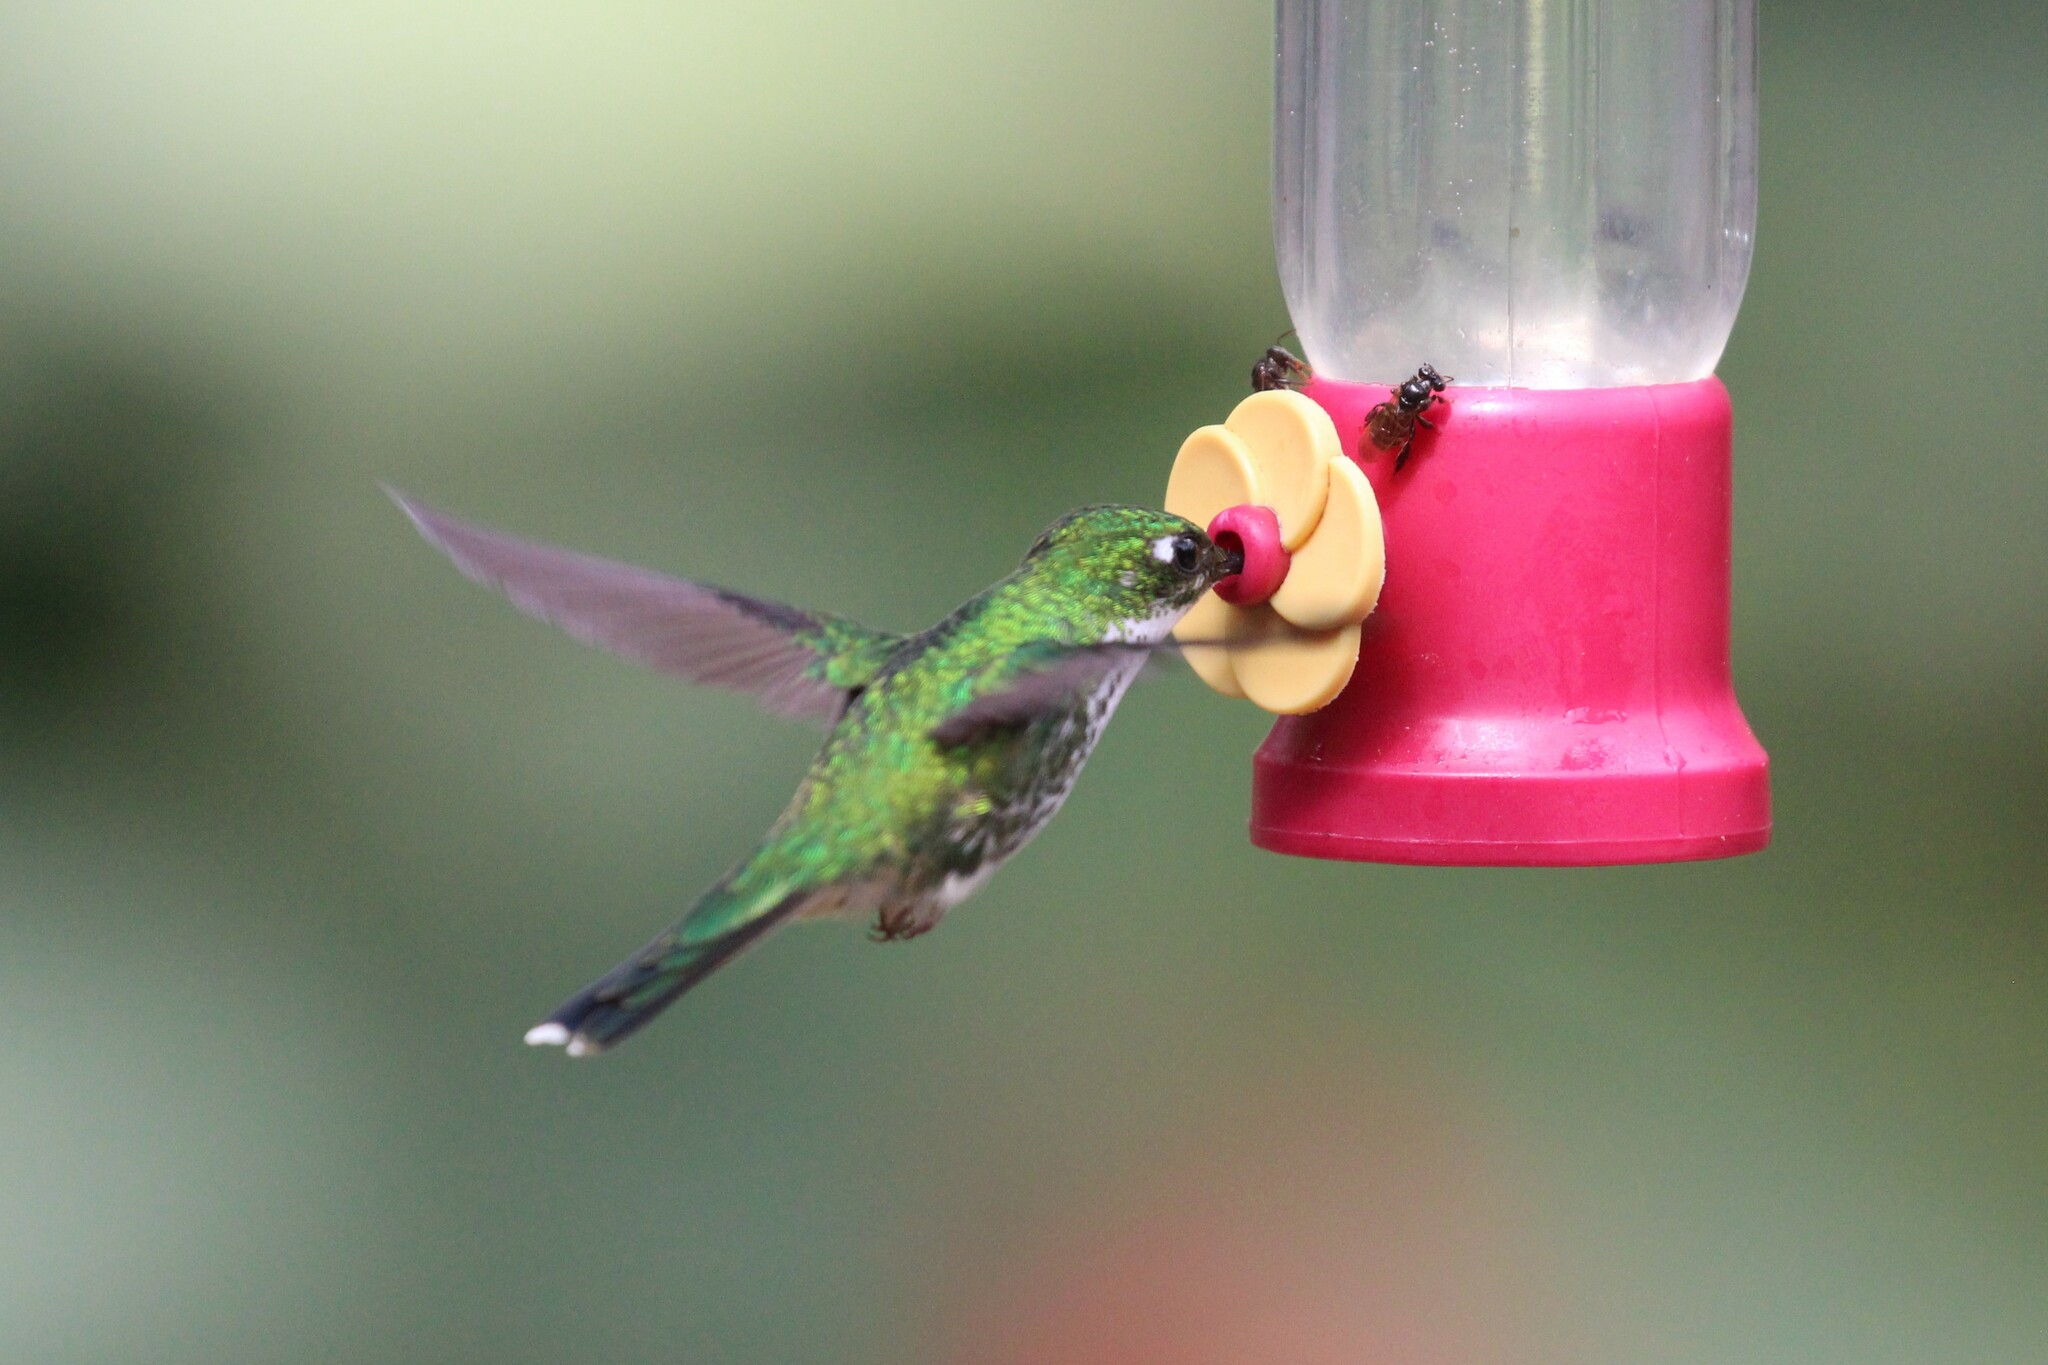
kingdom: Animalia
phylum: Chordata
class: Aves
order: Apodiformes
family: Trochilidae
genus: Ocreatus
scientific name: Ocreatus underwoodii
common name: Booted racket-tail
